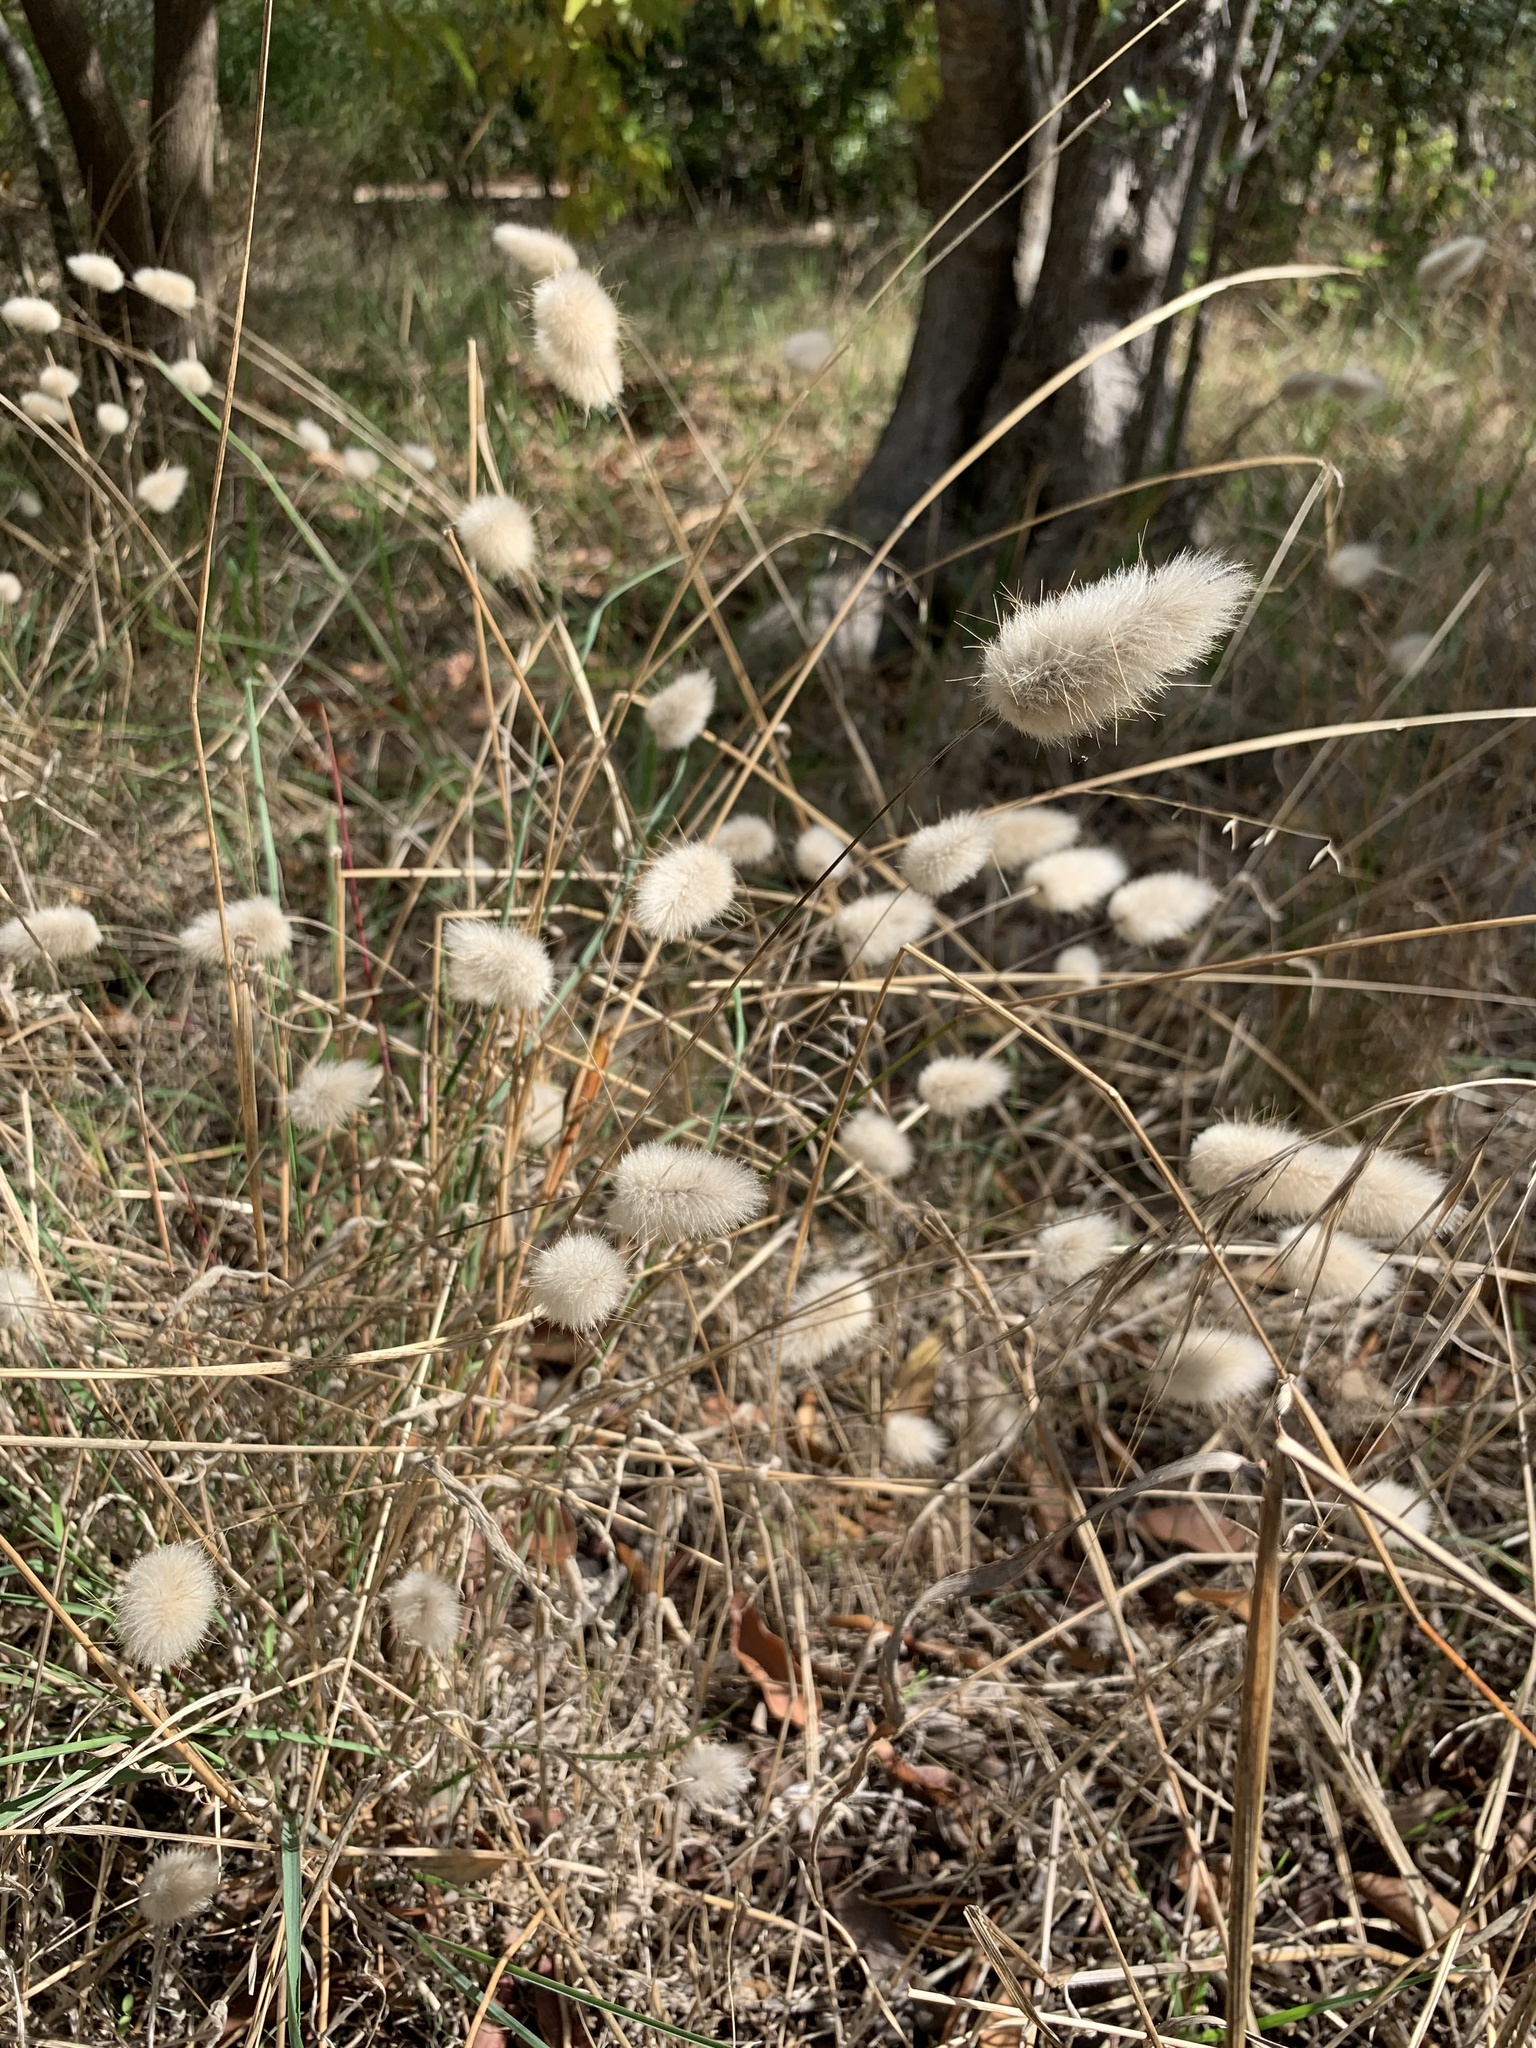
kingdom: Plantae
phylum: Tracheophyta
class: Liliopsida
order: Poales
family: Poaceae
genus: Lagurus
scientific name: Lagurus ovatus
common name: Hare's-tail
